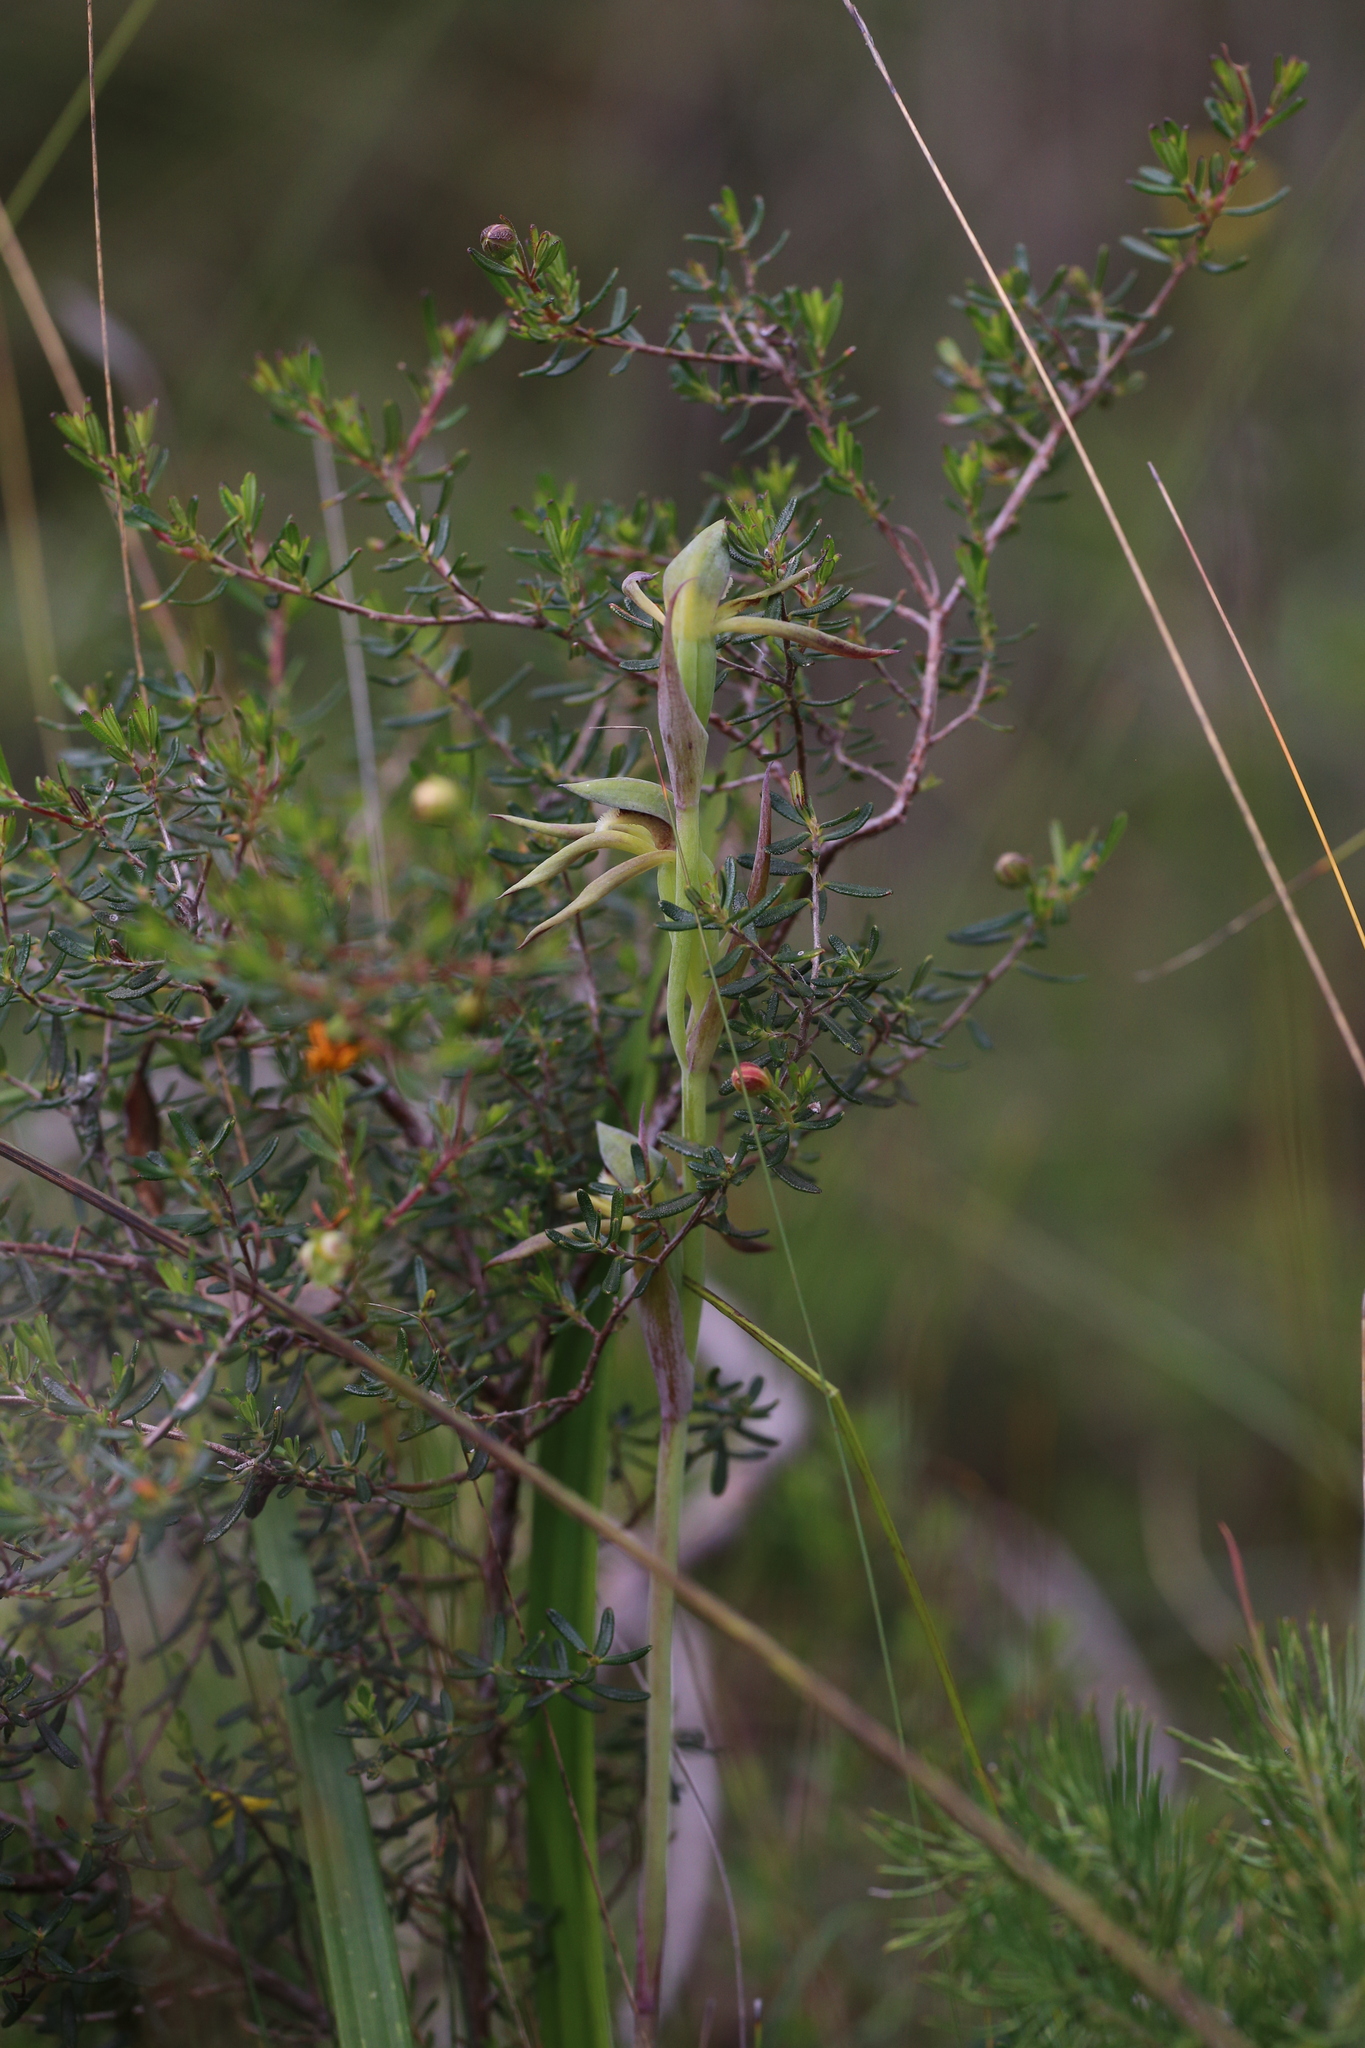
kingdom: Plantae
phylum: Tracheophyta
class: Liliopsida
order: Asparagales
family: Orchidaceae
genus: Lyperanthus
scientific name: Lyperanthus serratus
